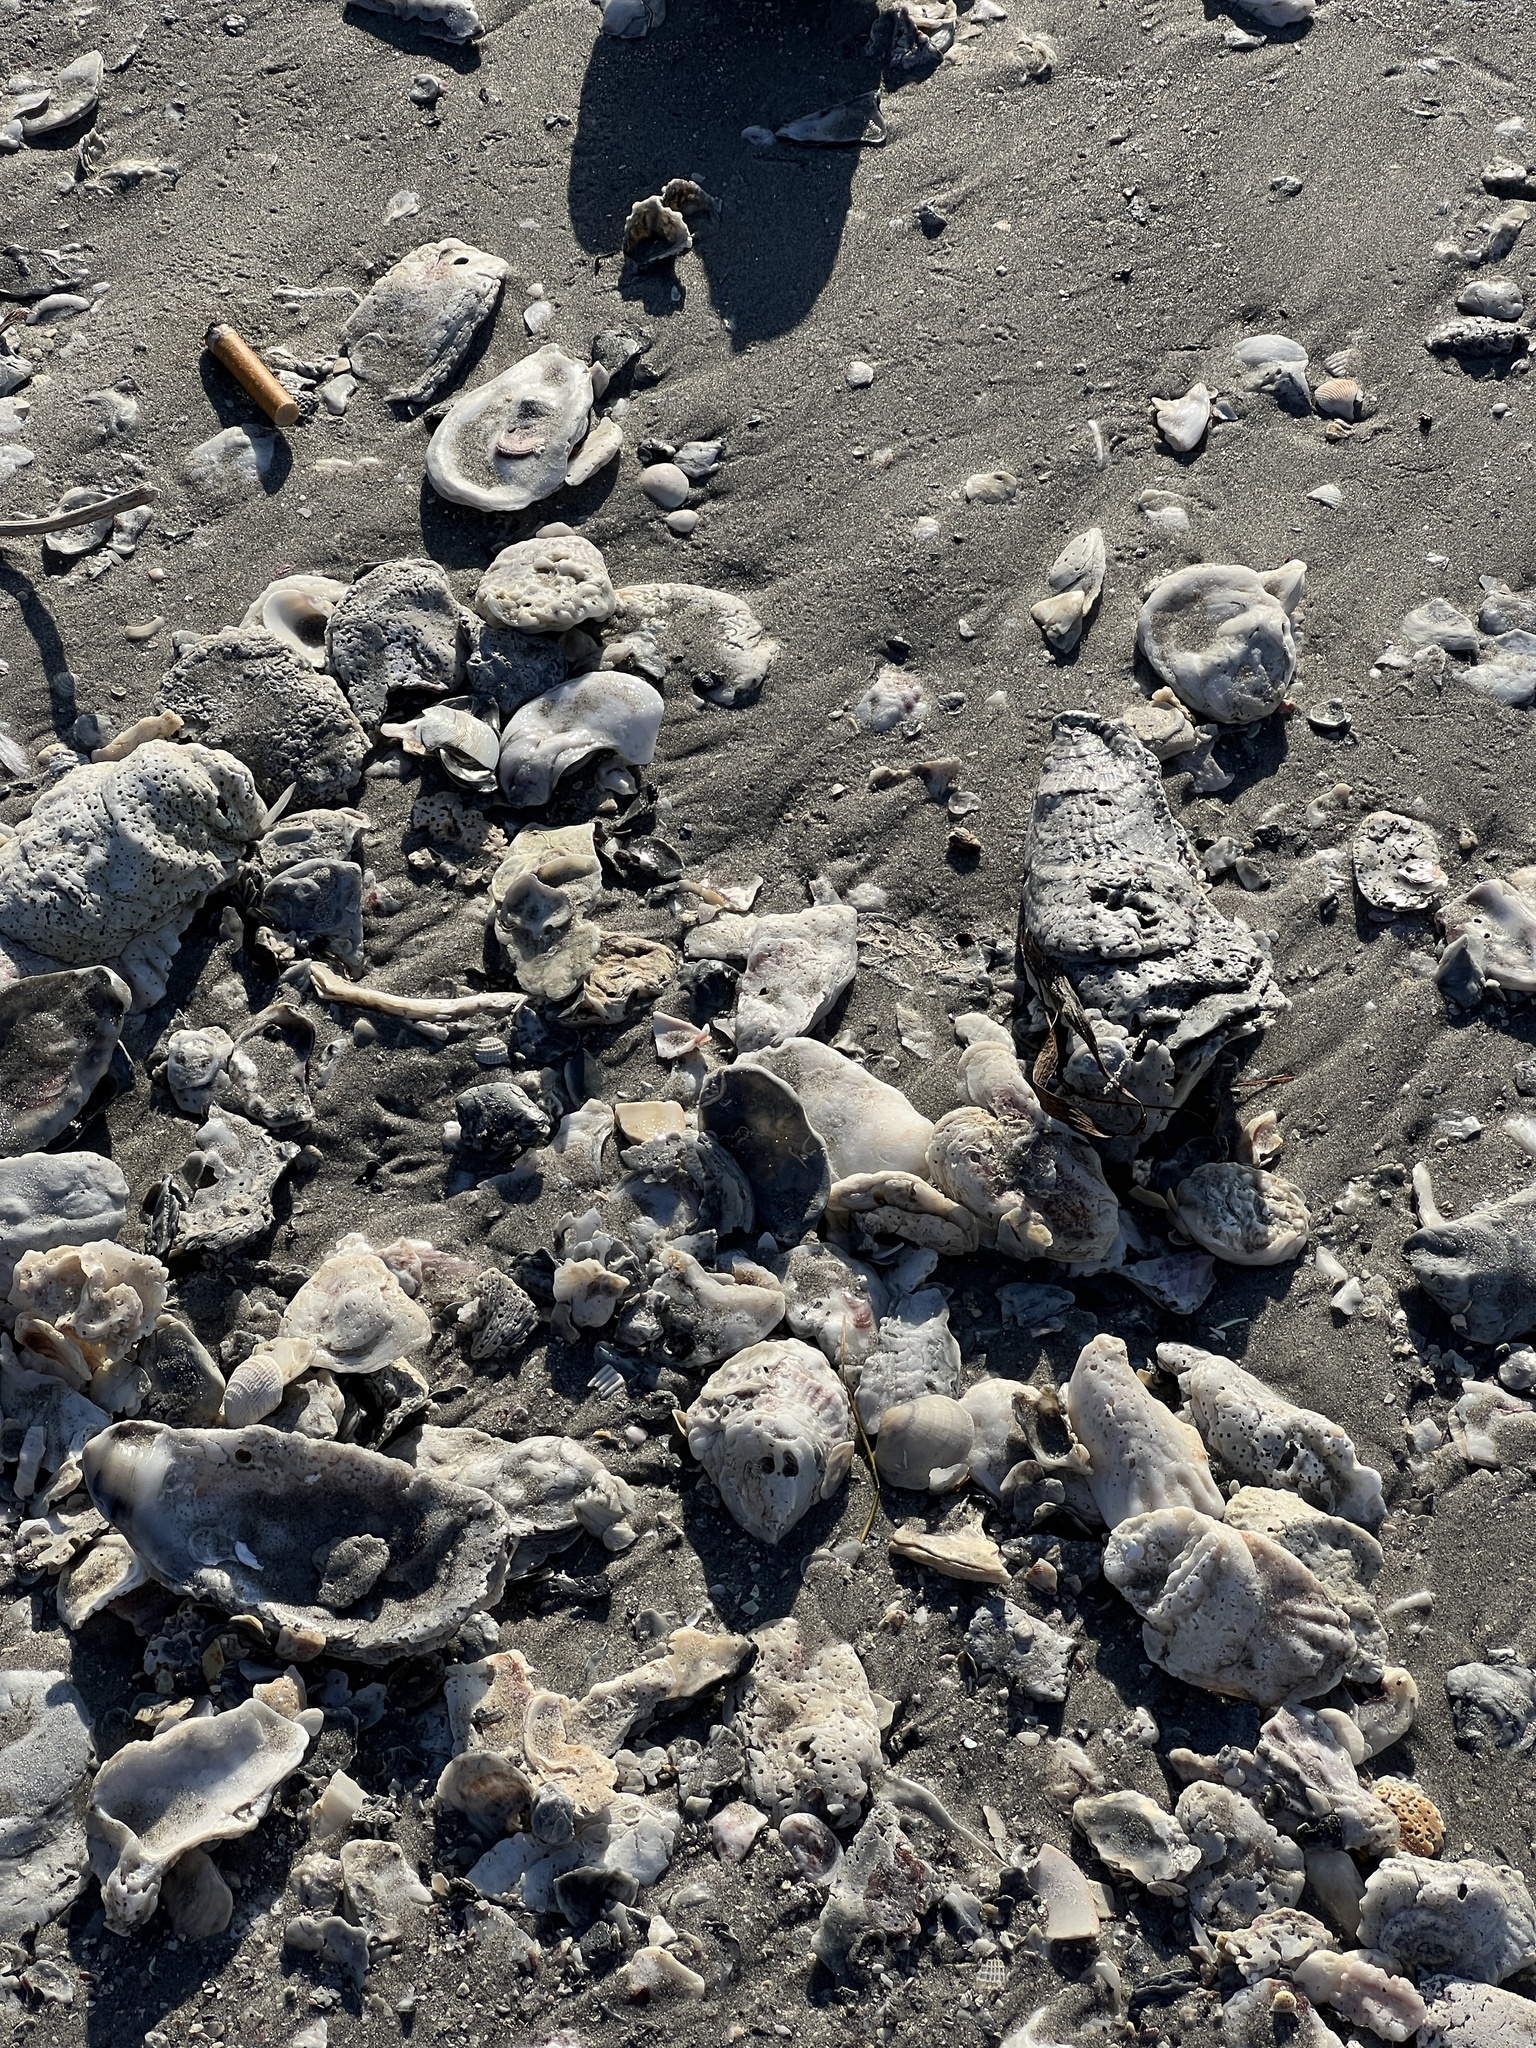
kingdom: Animalia
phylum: Mollusca
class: Bivalvia
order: Ostreida
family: Ostreidae
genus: Crassostrea
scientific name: Crassostrea virginica
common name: American oyster
